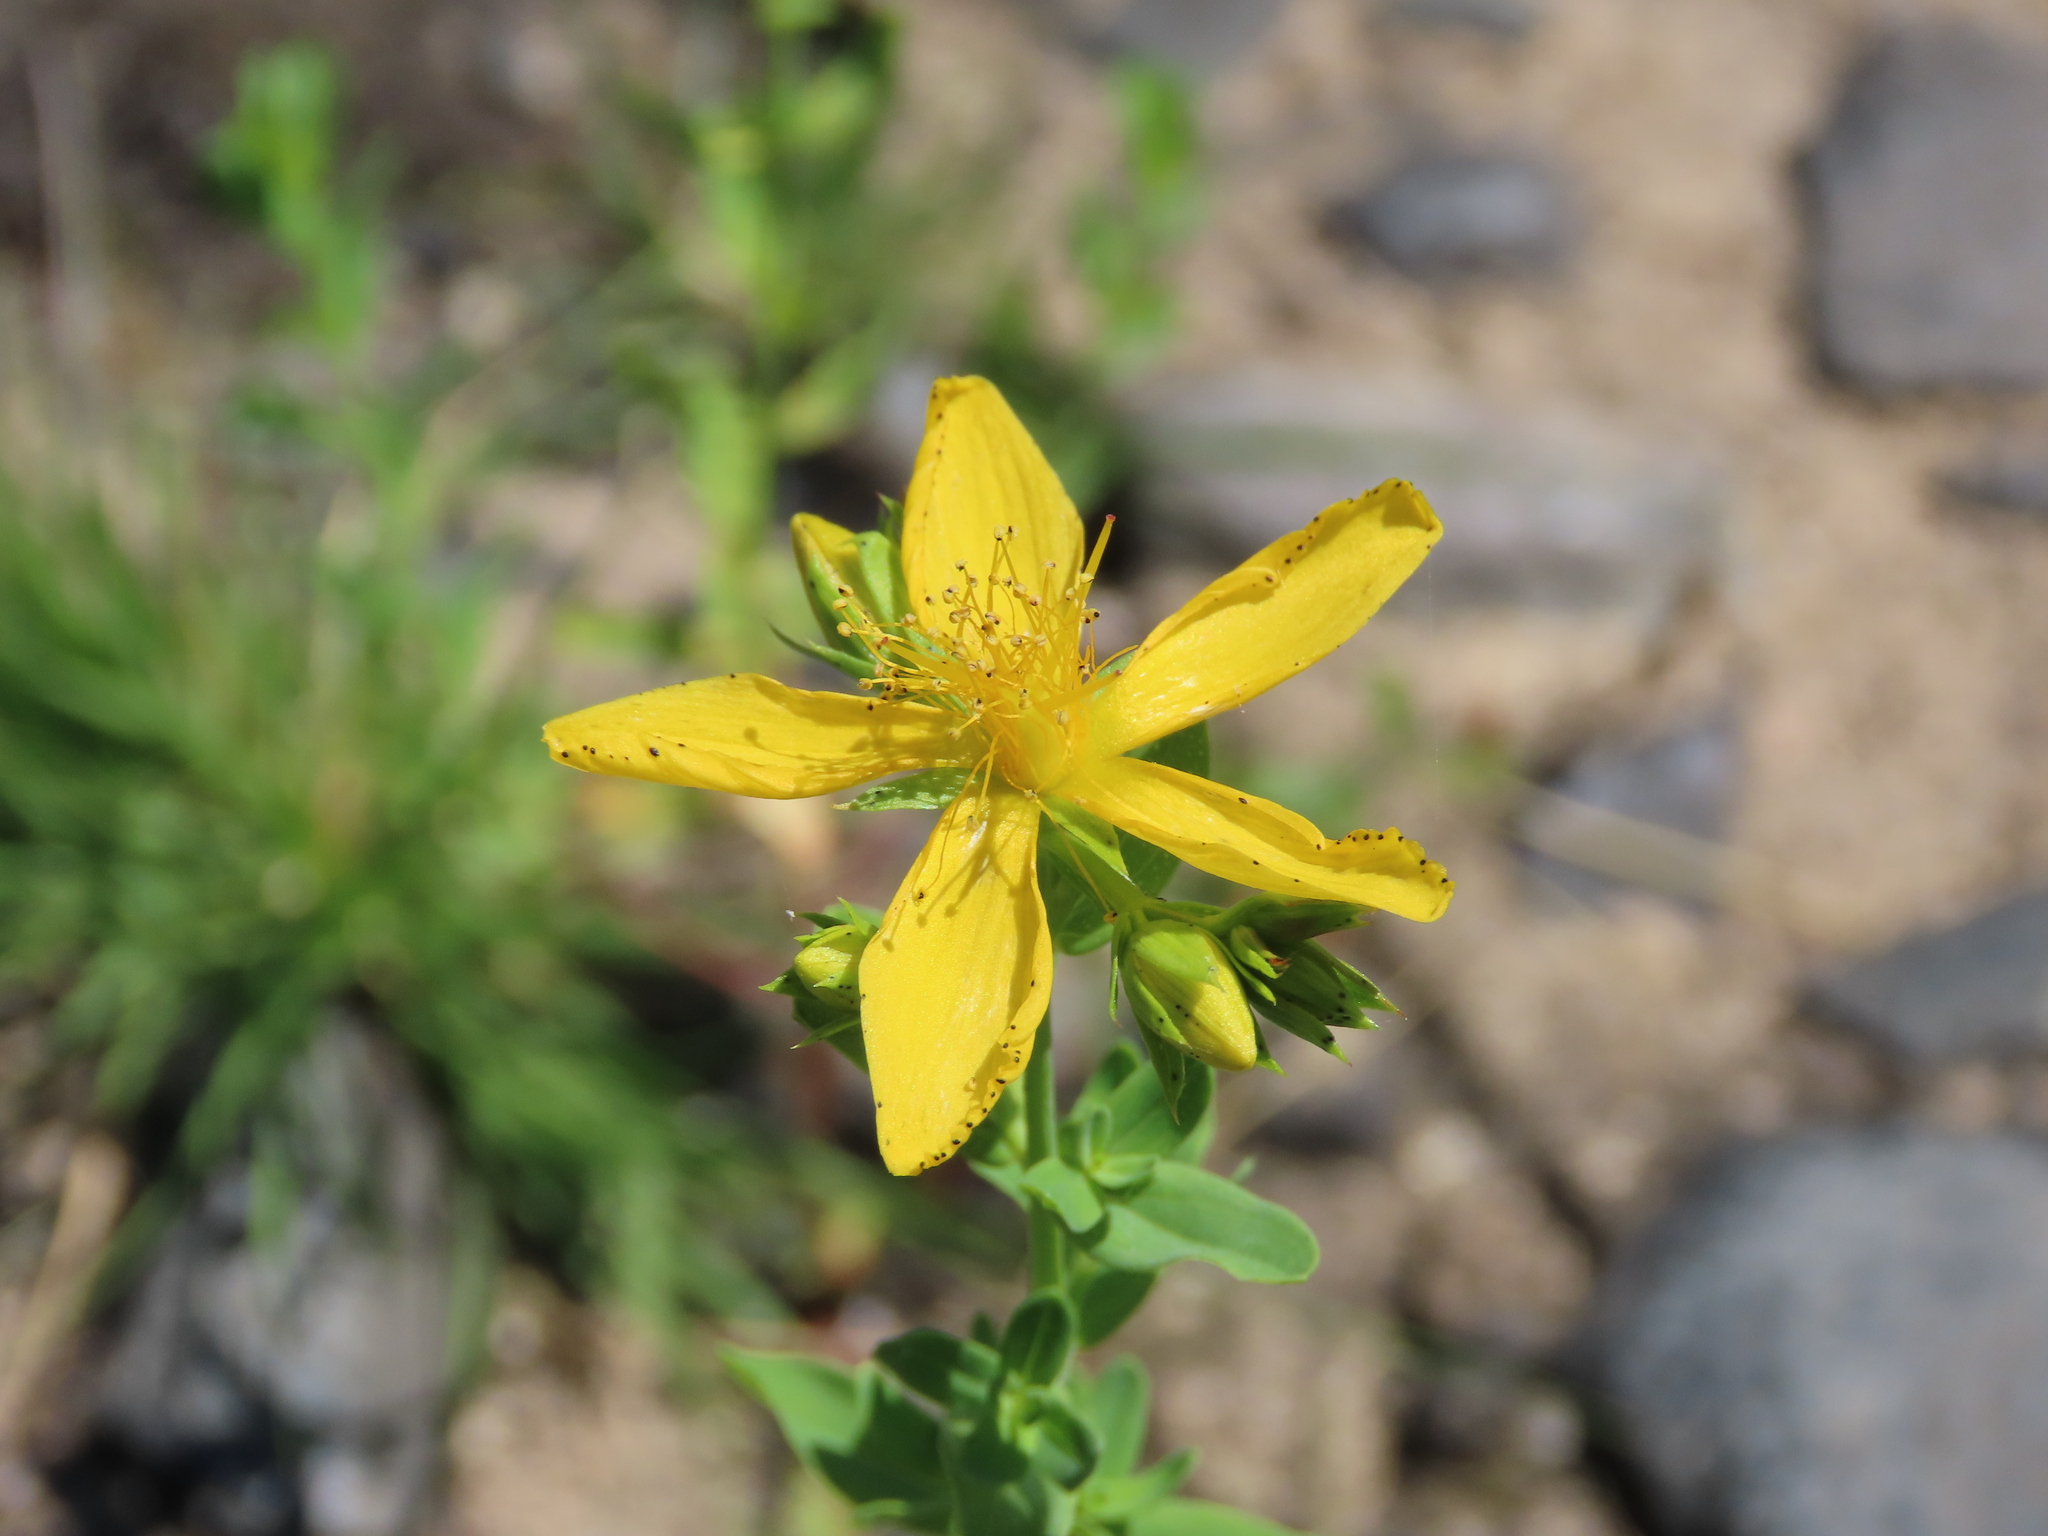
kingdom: Plantae
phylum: Tracheophyta
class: Magnoliopsida
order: Malpighiales
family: Hypericaceae
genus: Hypericum
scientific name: Hypericum perforatum
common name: Common st. johnswort
